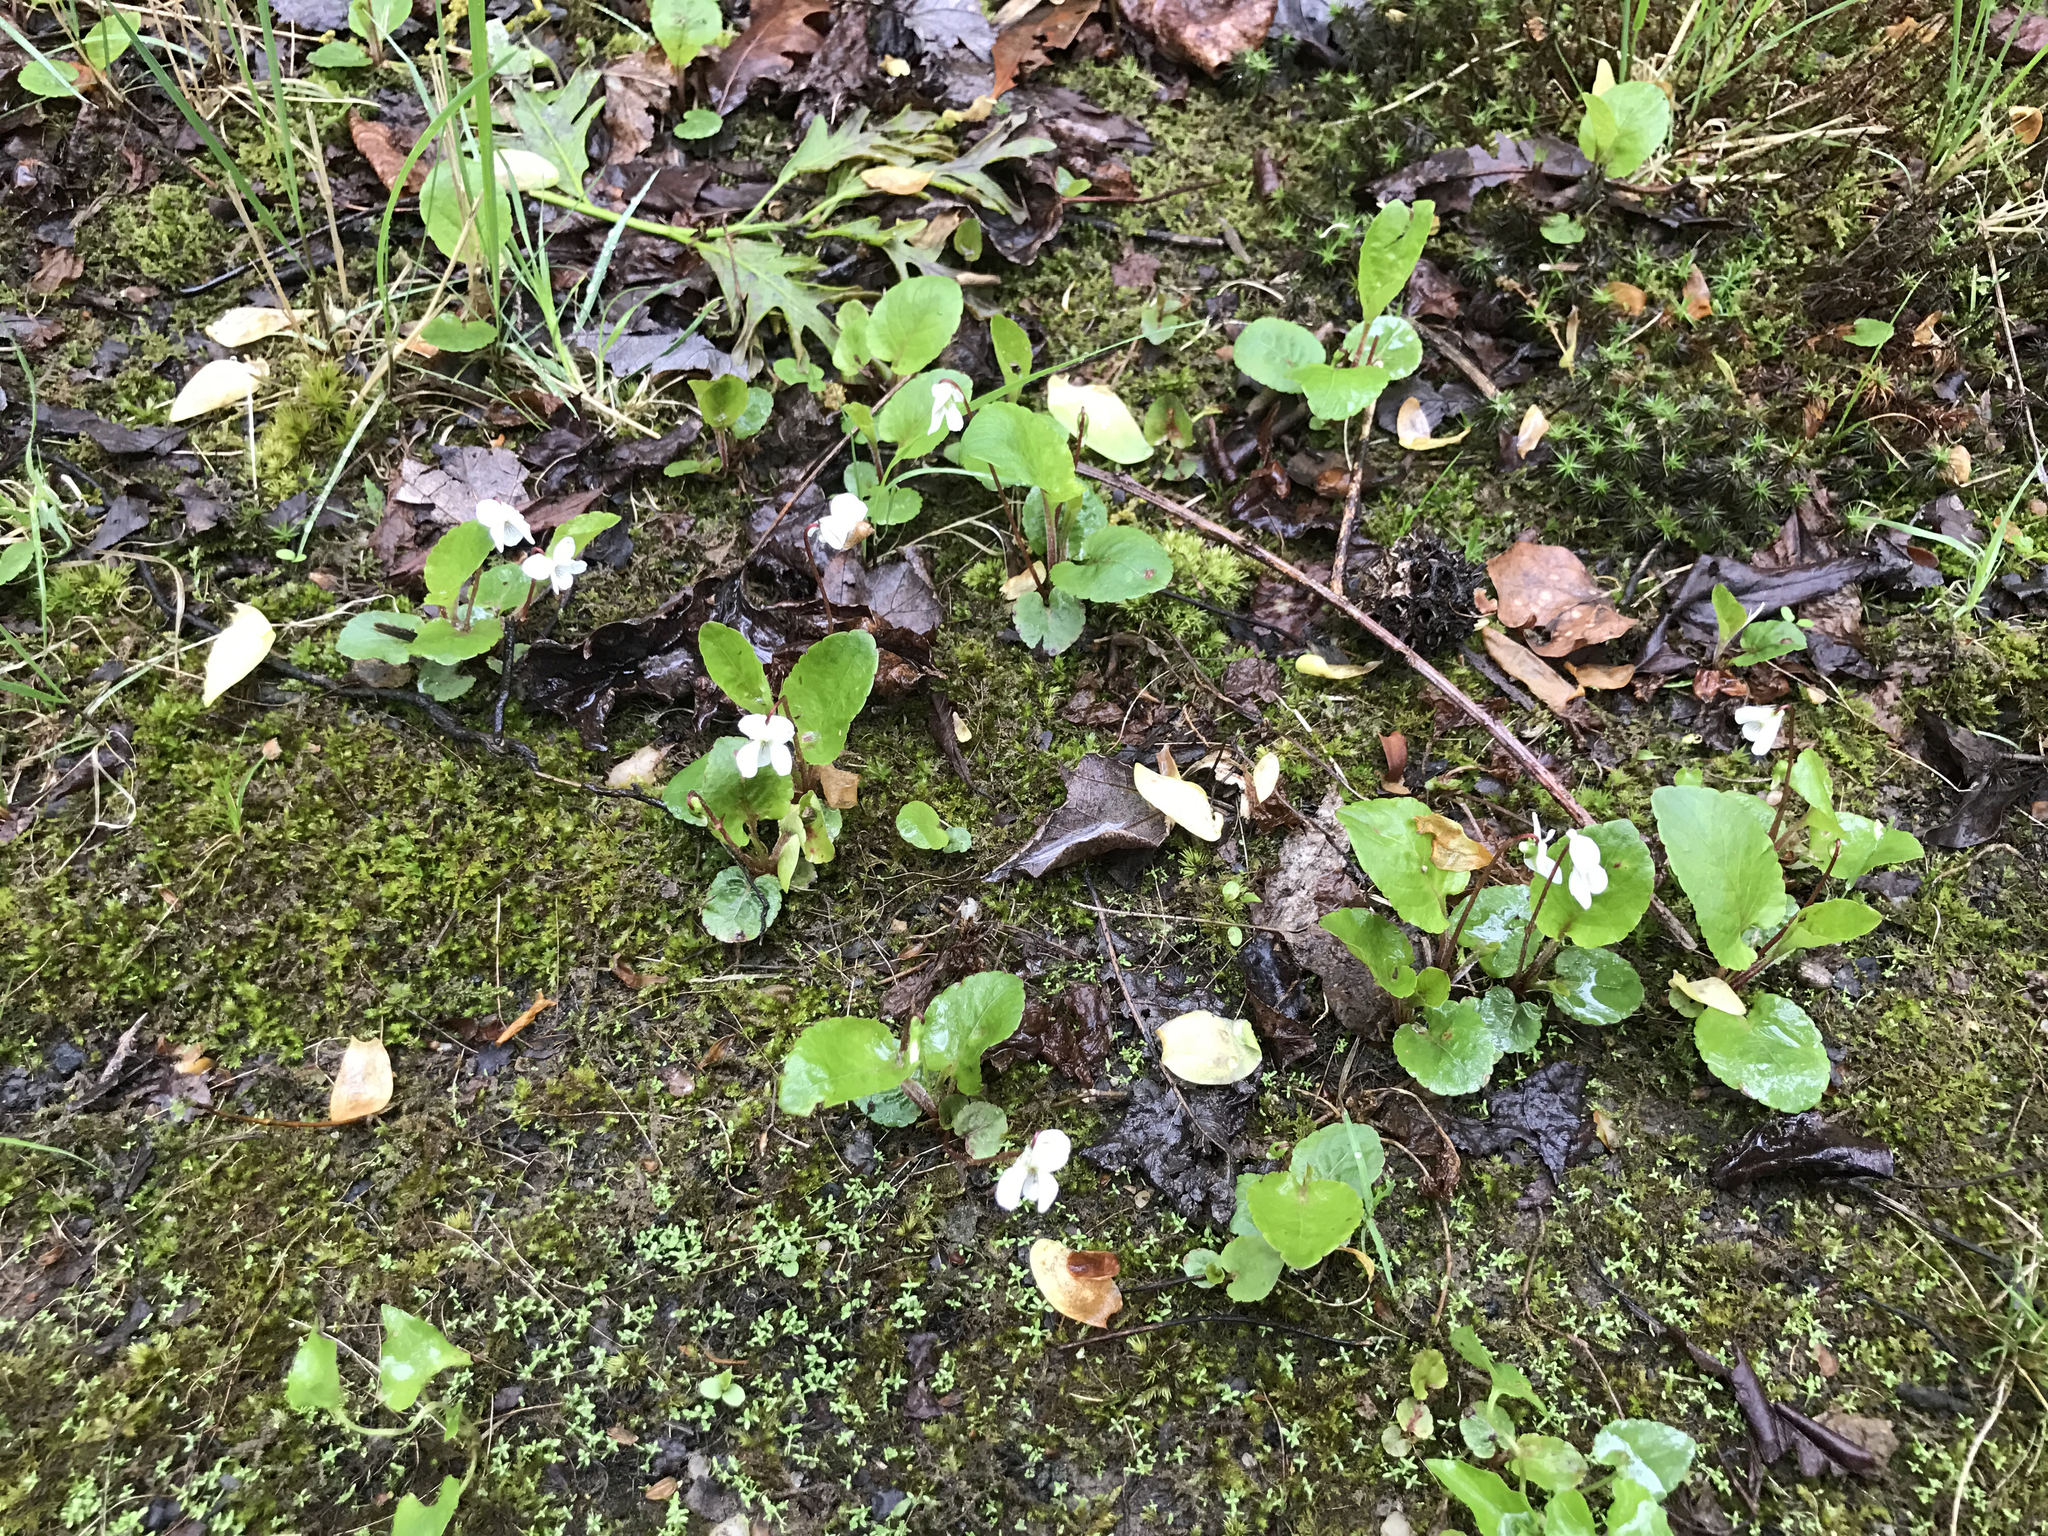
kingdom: Plantae
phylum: Tracheophyta
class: Magnoliopsida
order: Malpighiales
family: Violaceae
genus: Viola
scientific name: Viola blanda
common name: Sweet white violet
